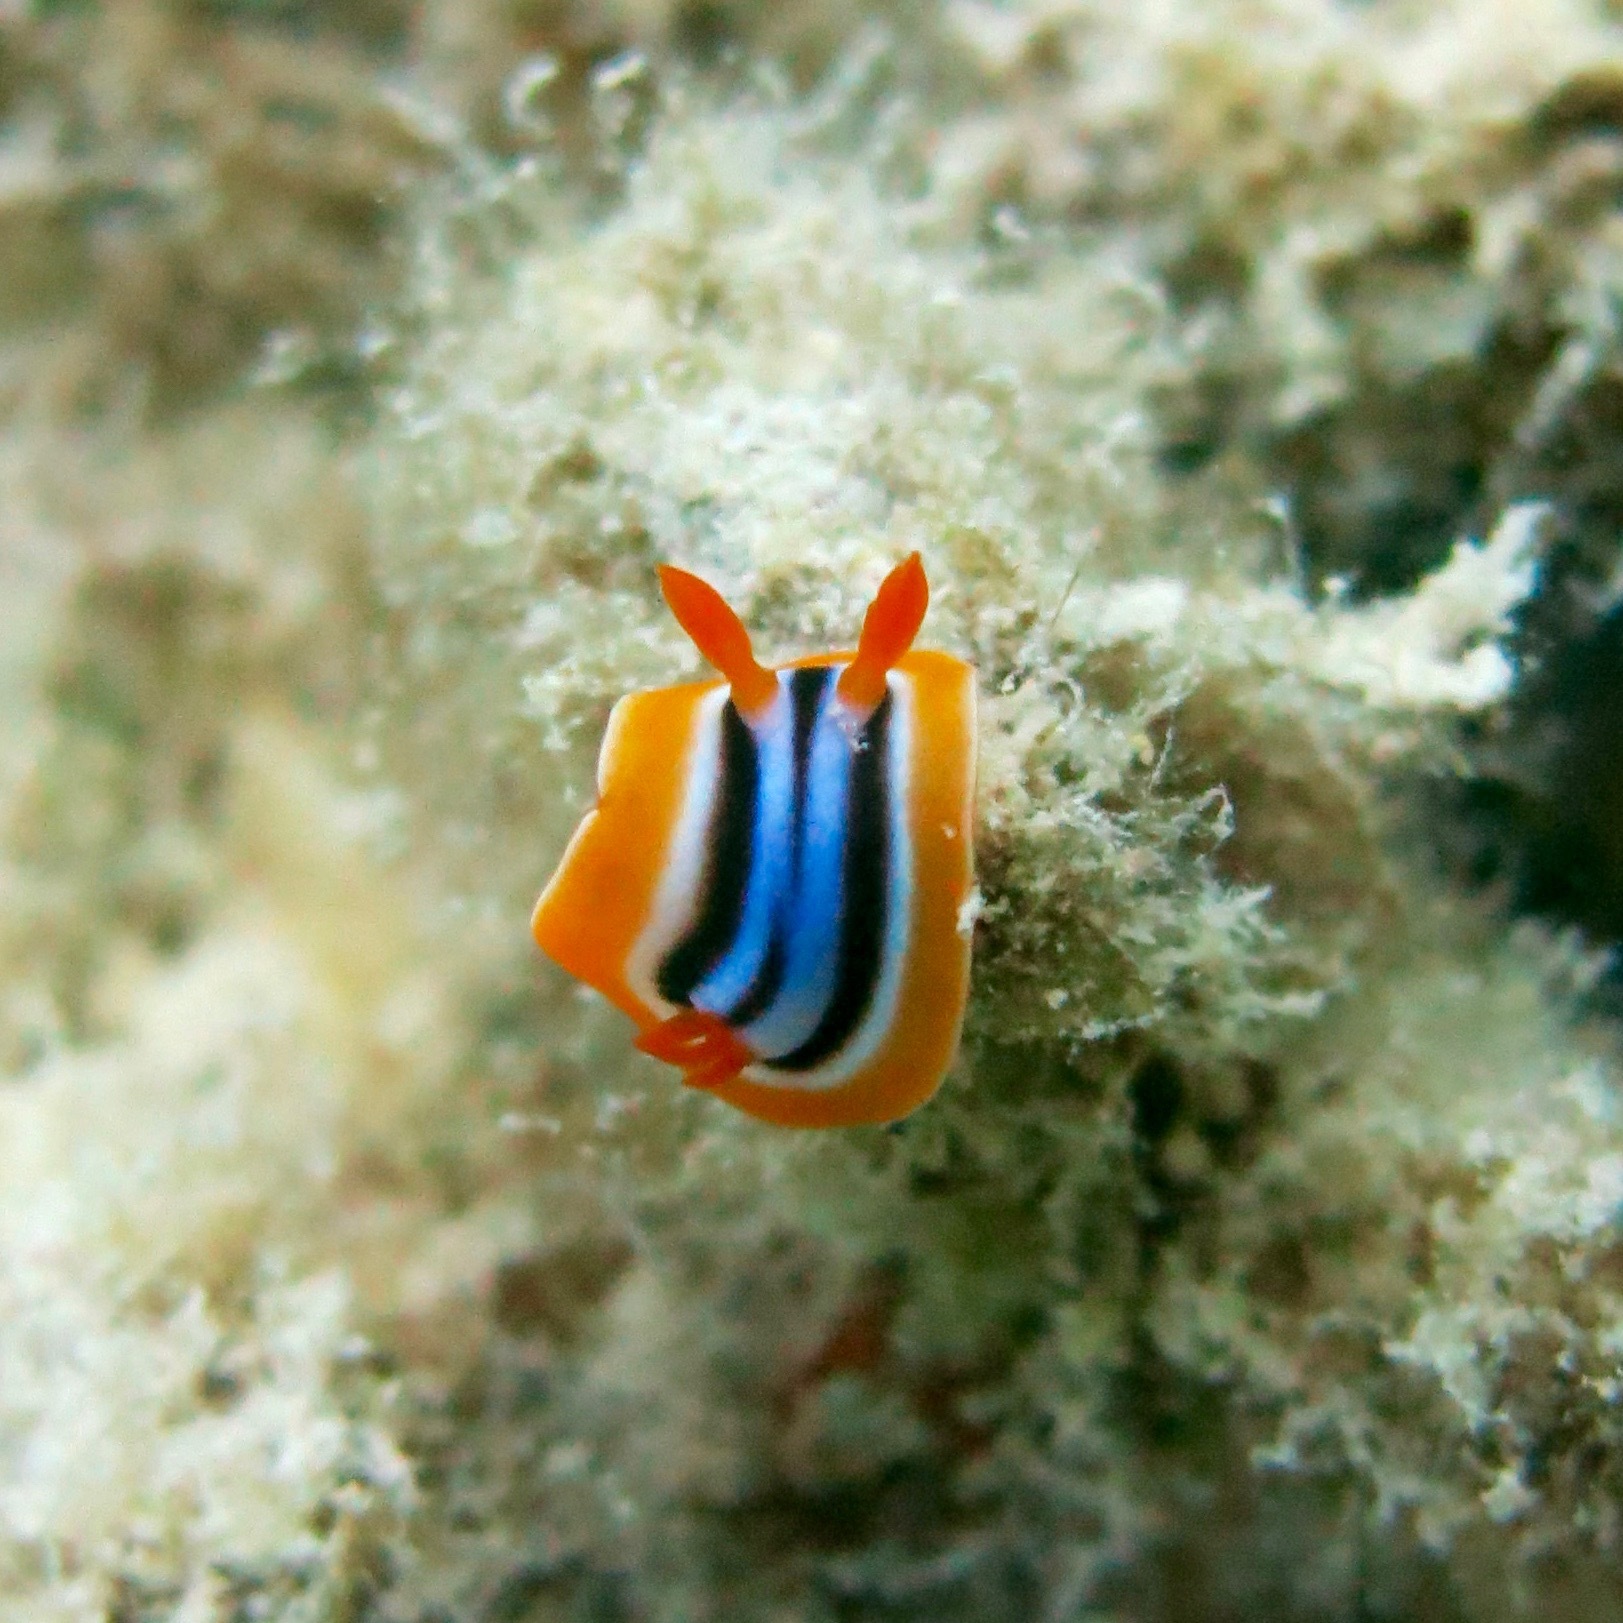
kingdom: Animalia
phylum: Mollusca
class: Gastropoda
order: Nudibranchia
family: Chromodorididae
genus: Chromodoris
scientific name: Chromodoris quadricolor
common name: Striped pyjama nudibranch
